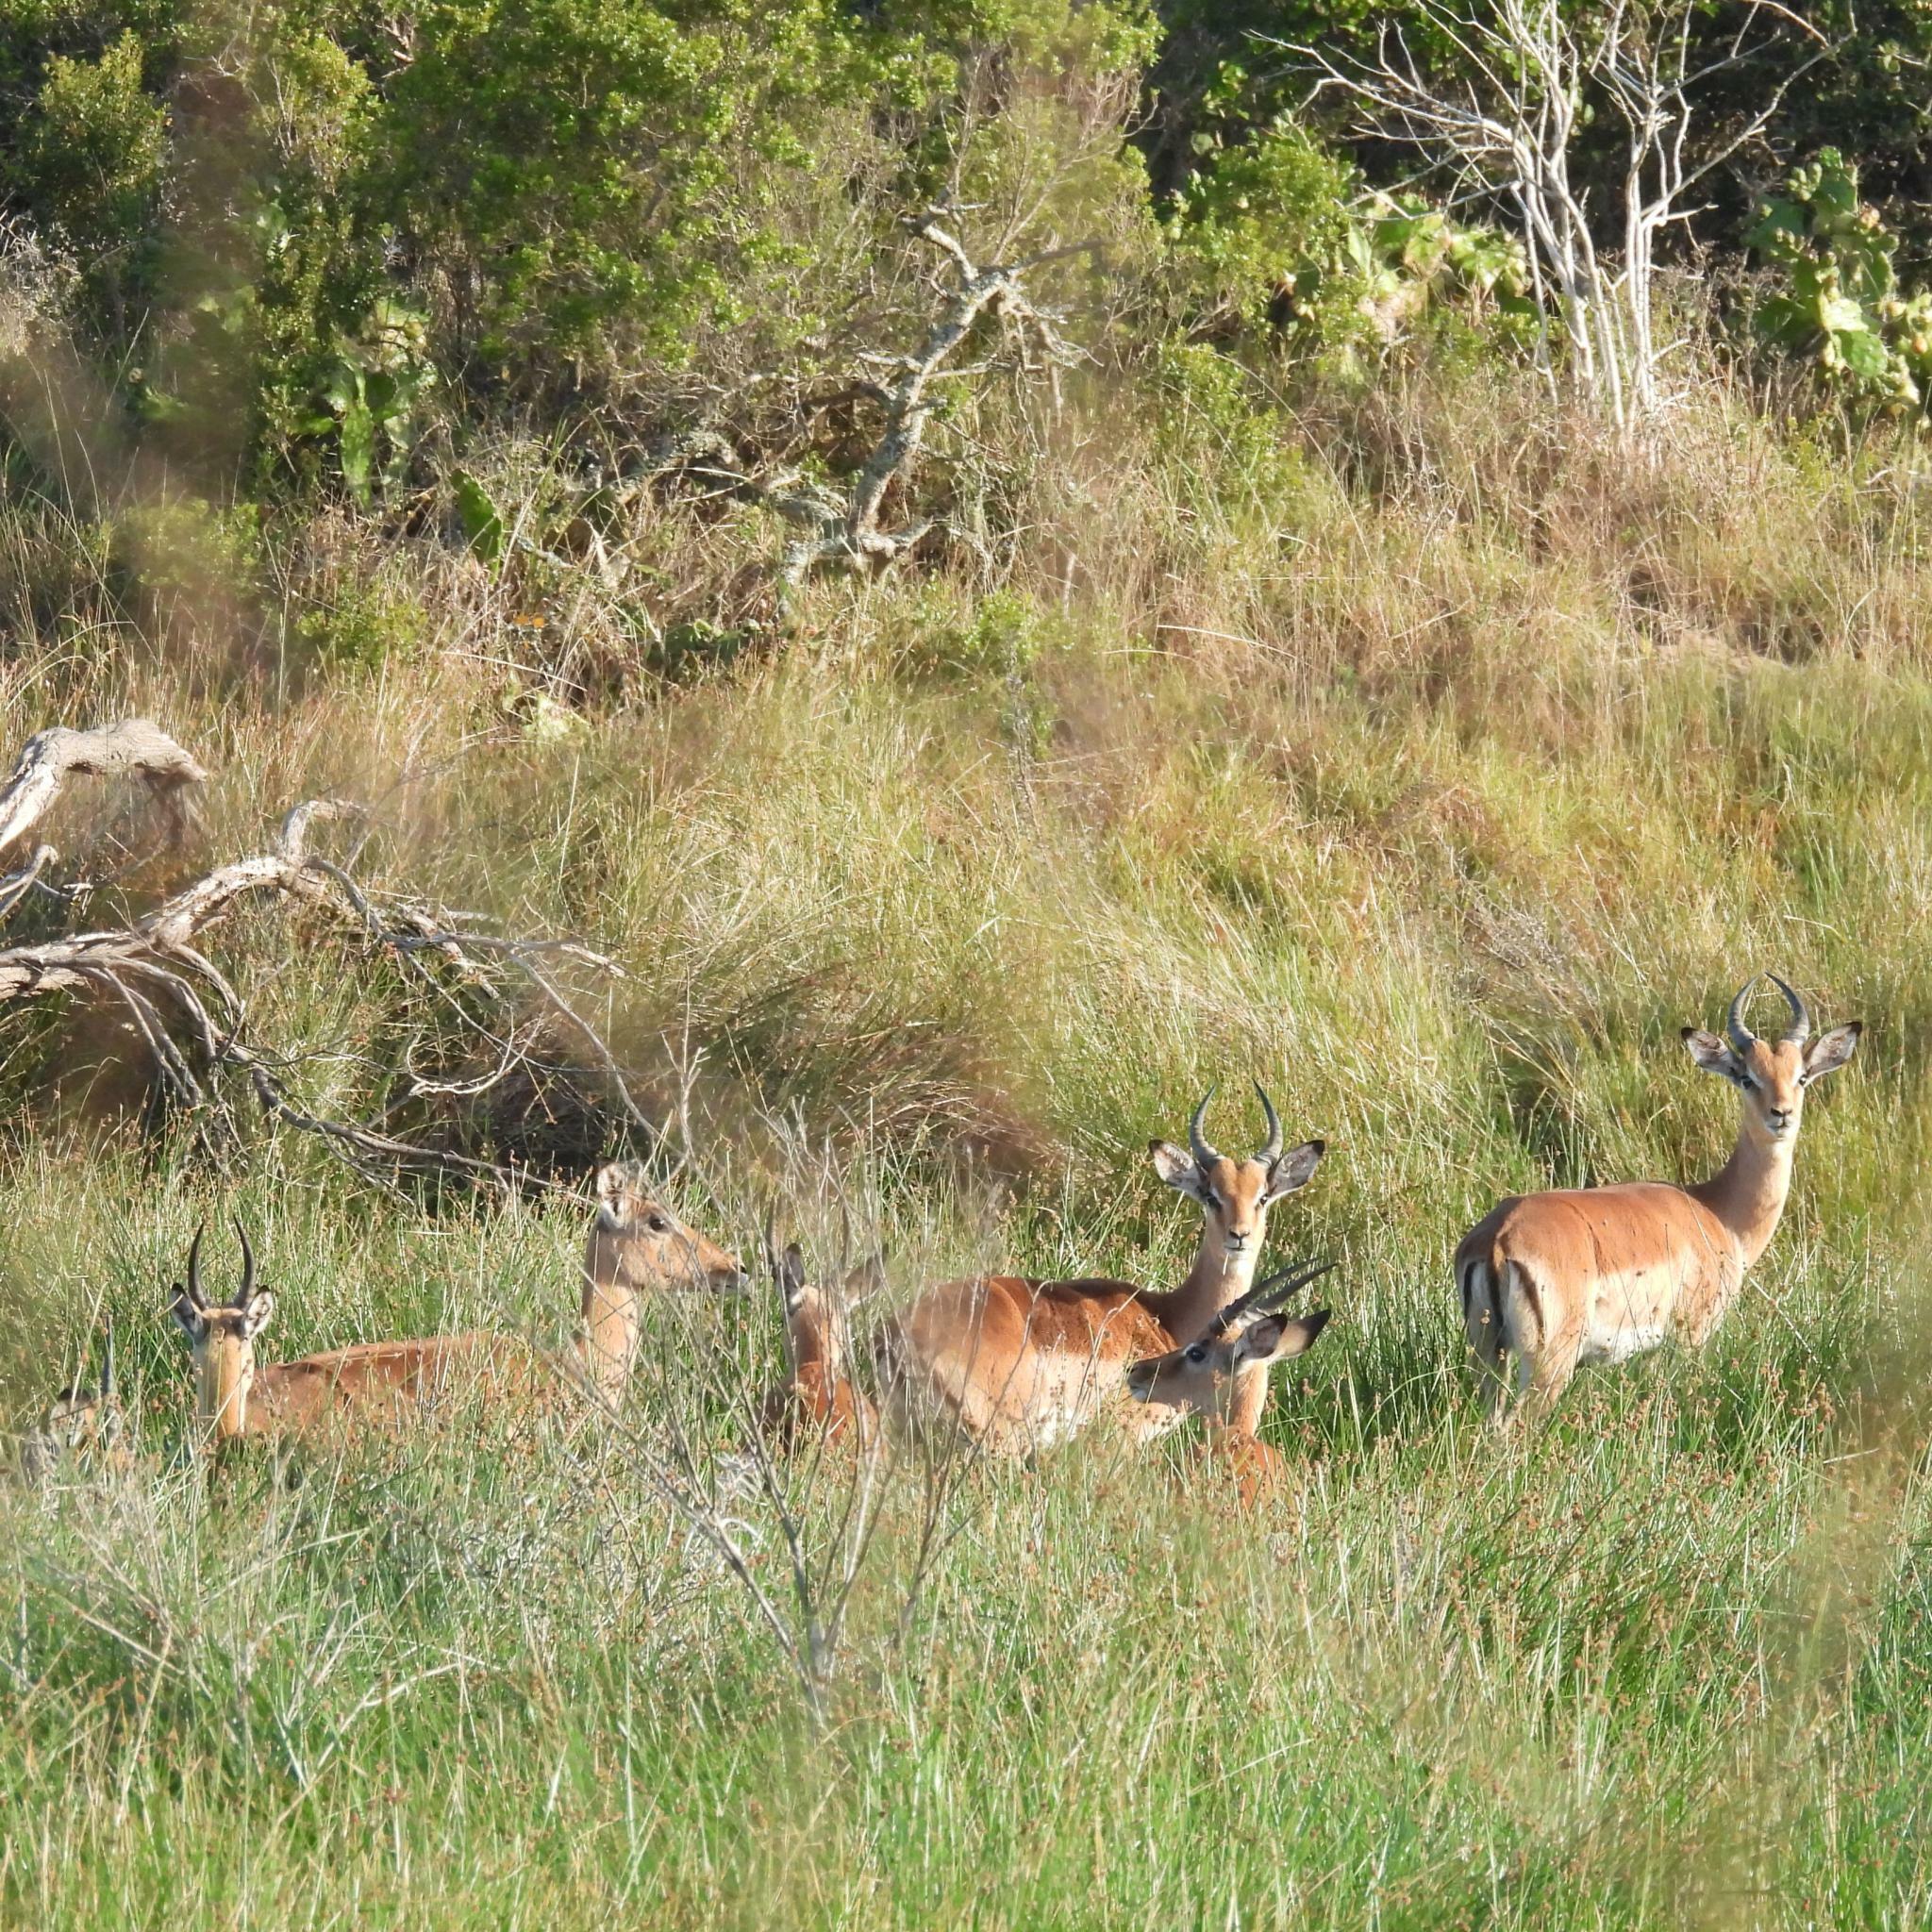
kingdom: Animalia
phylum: Chordata
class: Mammalia
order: Artiodactyla
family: Bovidae
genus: Aepyceros
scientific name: Aepyceros melampus
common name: Impala
